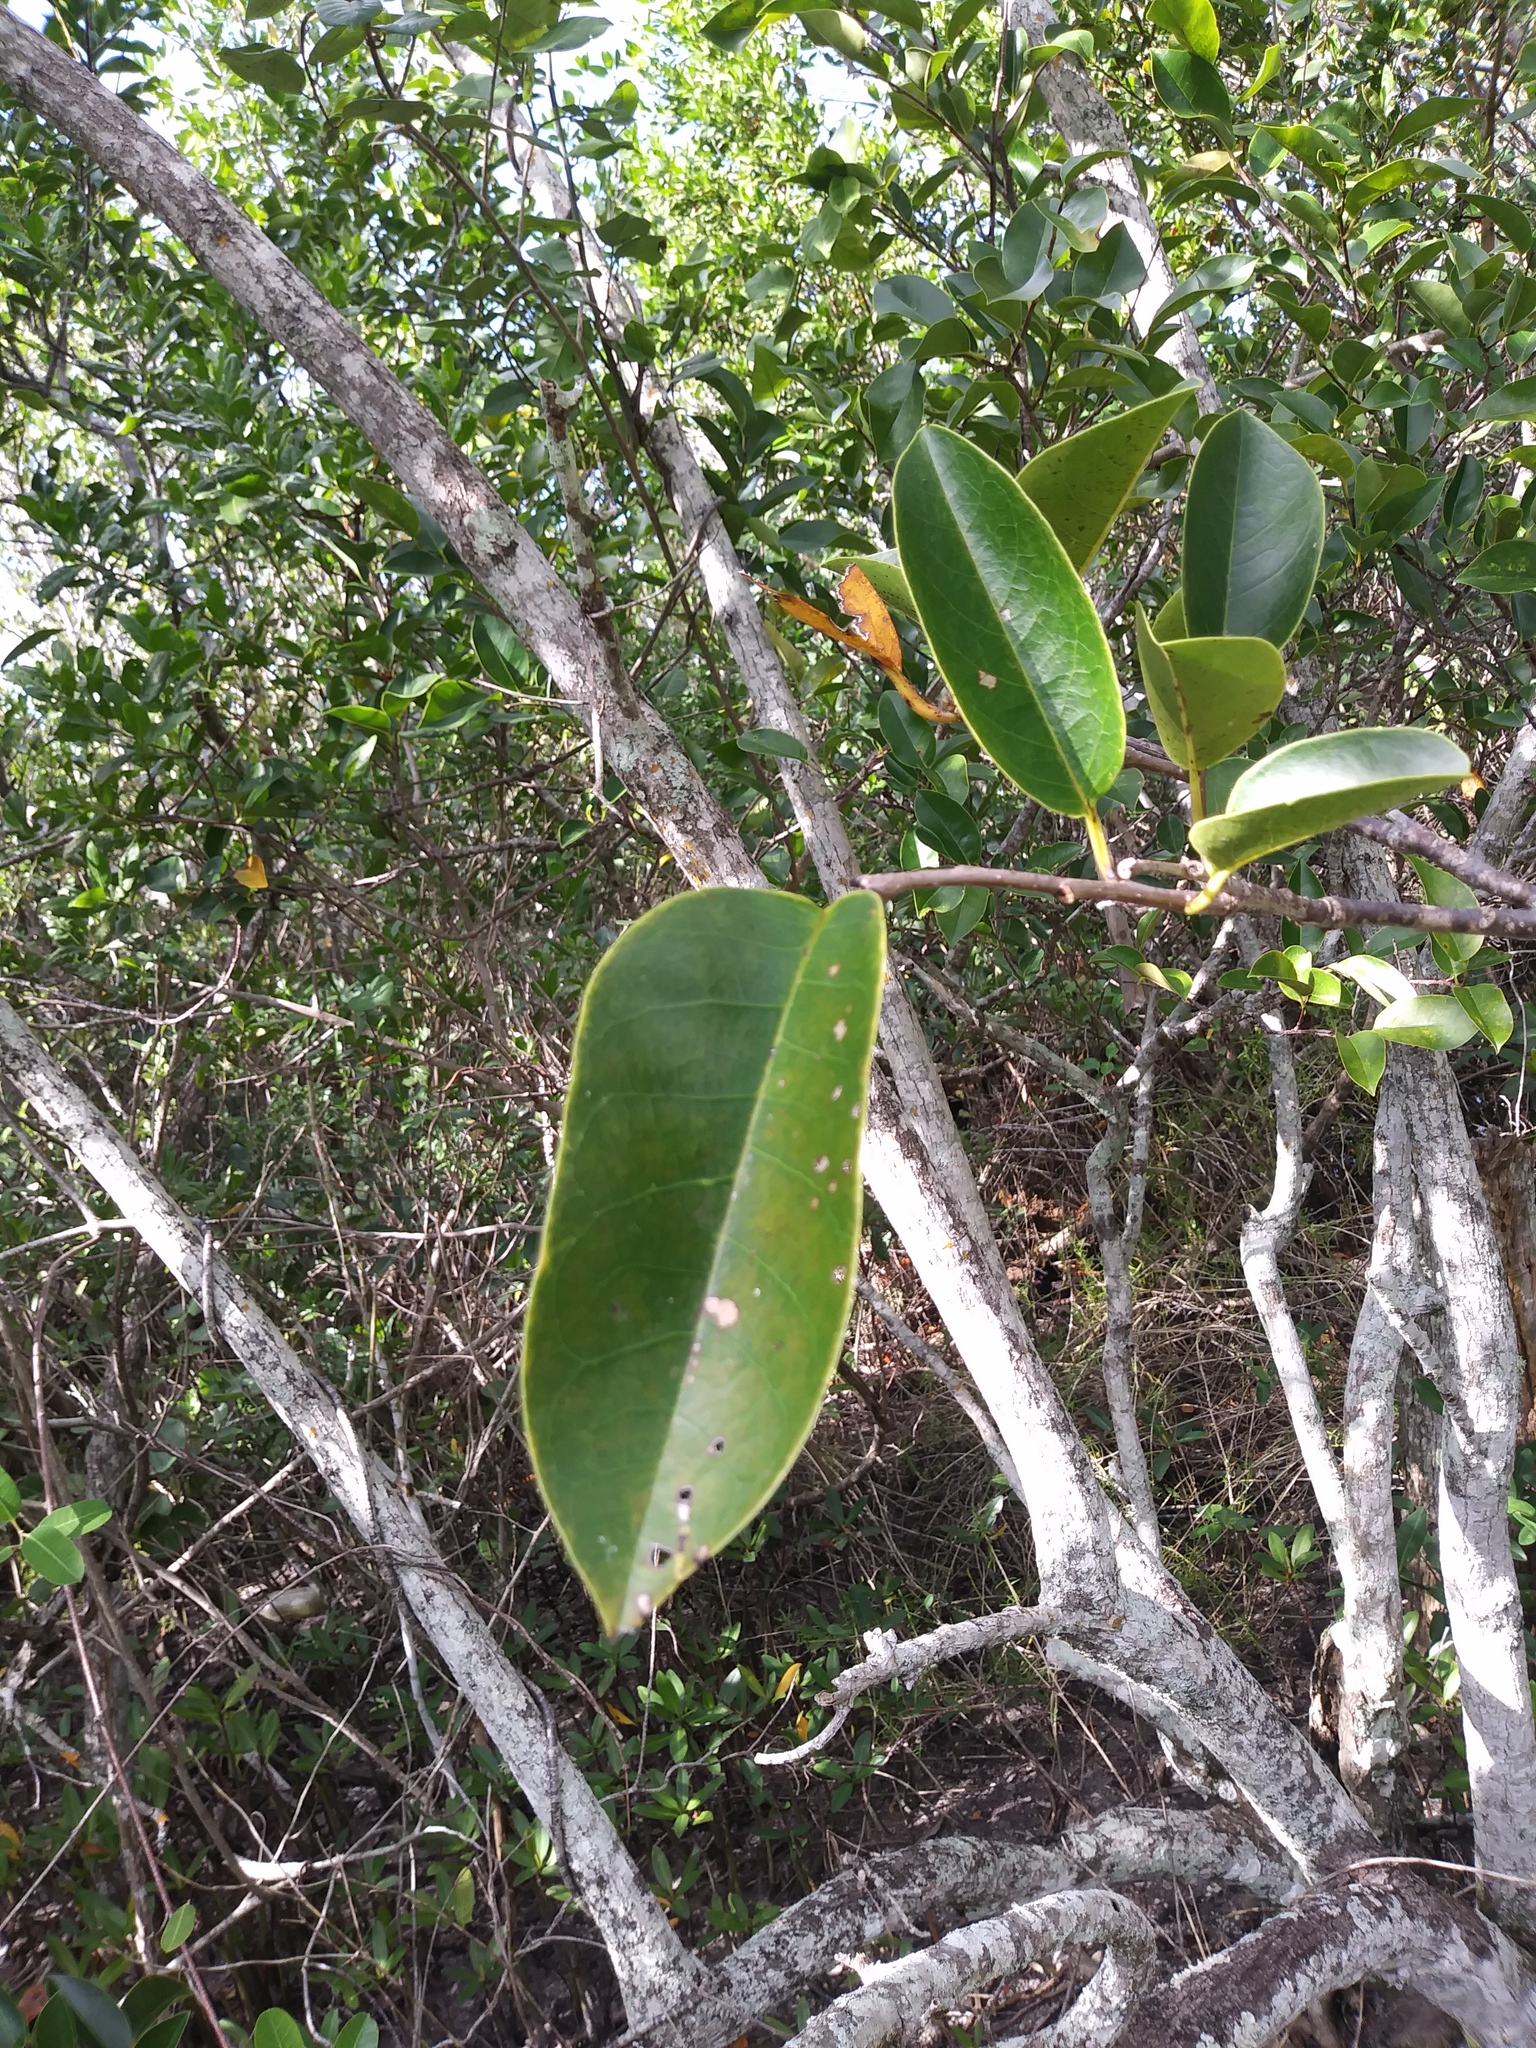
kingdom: Plantae
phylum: Tracheophyta
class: Magnoliopsida
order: Magnoliales
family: Annonaceae
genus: Annona
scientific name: Annona glabra
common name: Monkey apple
